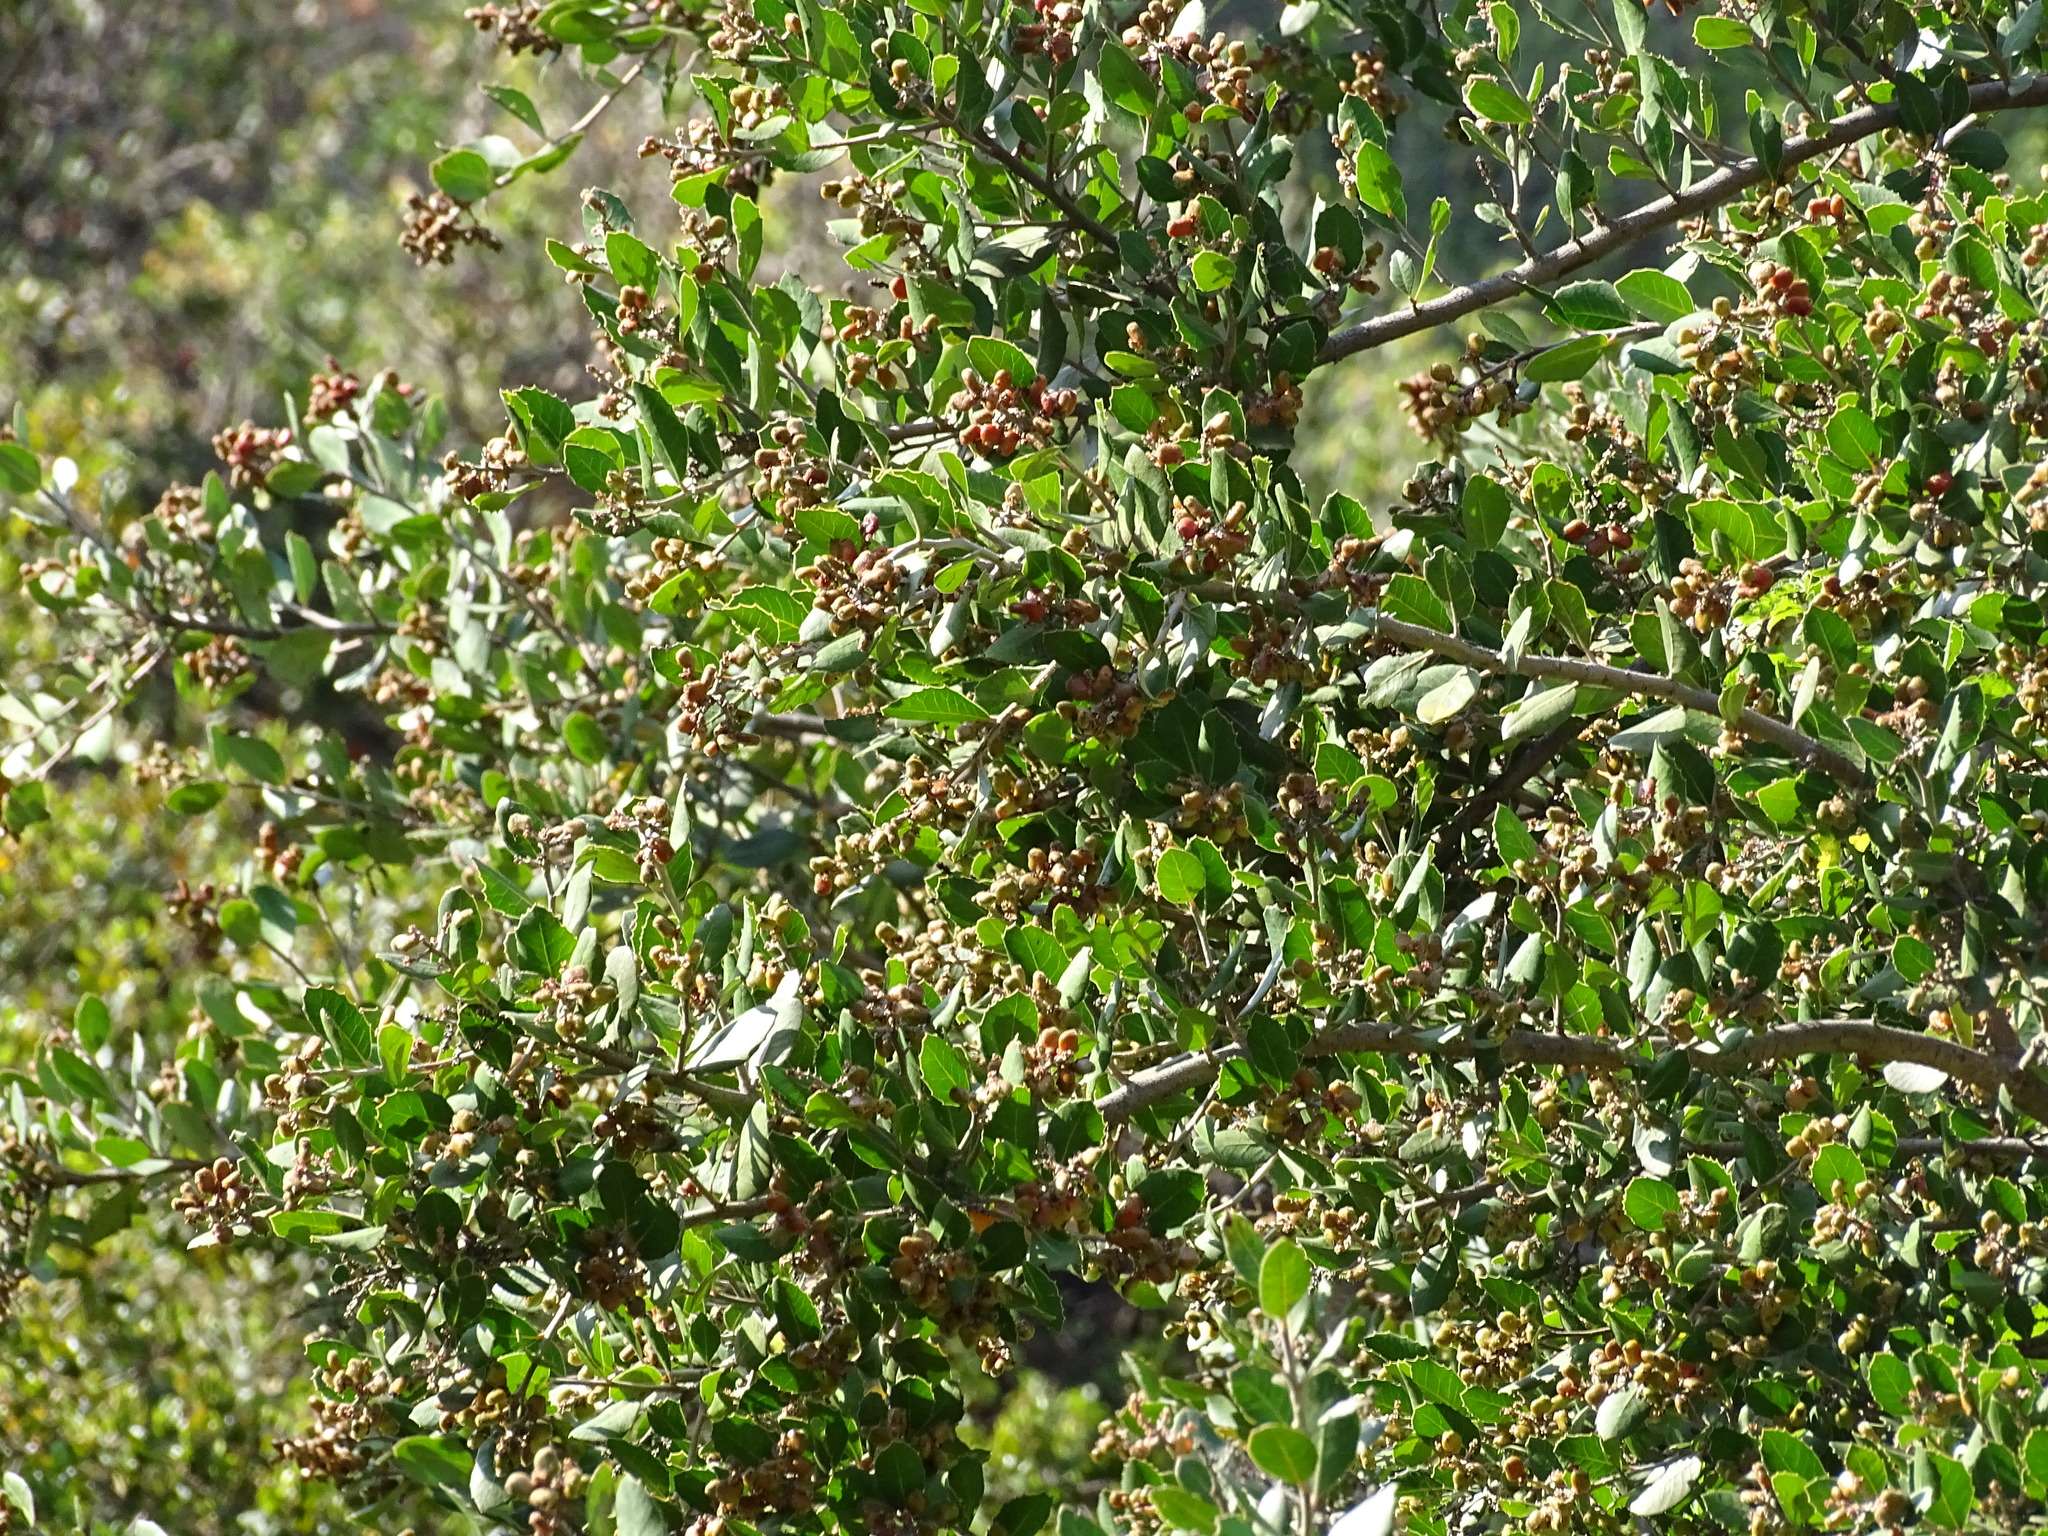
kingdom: Plantae
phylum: Tracheophyta
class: Magnoliopsida
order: Sapindales
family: Anacardiaceae
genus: Rhus
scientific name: Rhus integrifolia
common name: Lemonade sumac
